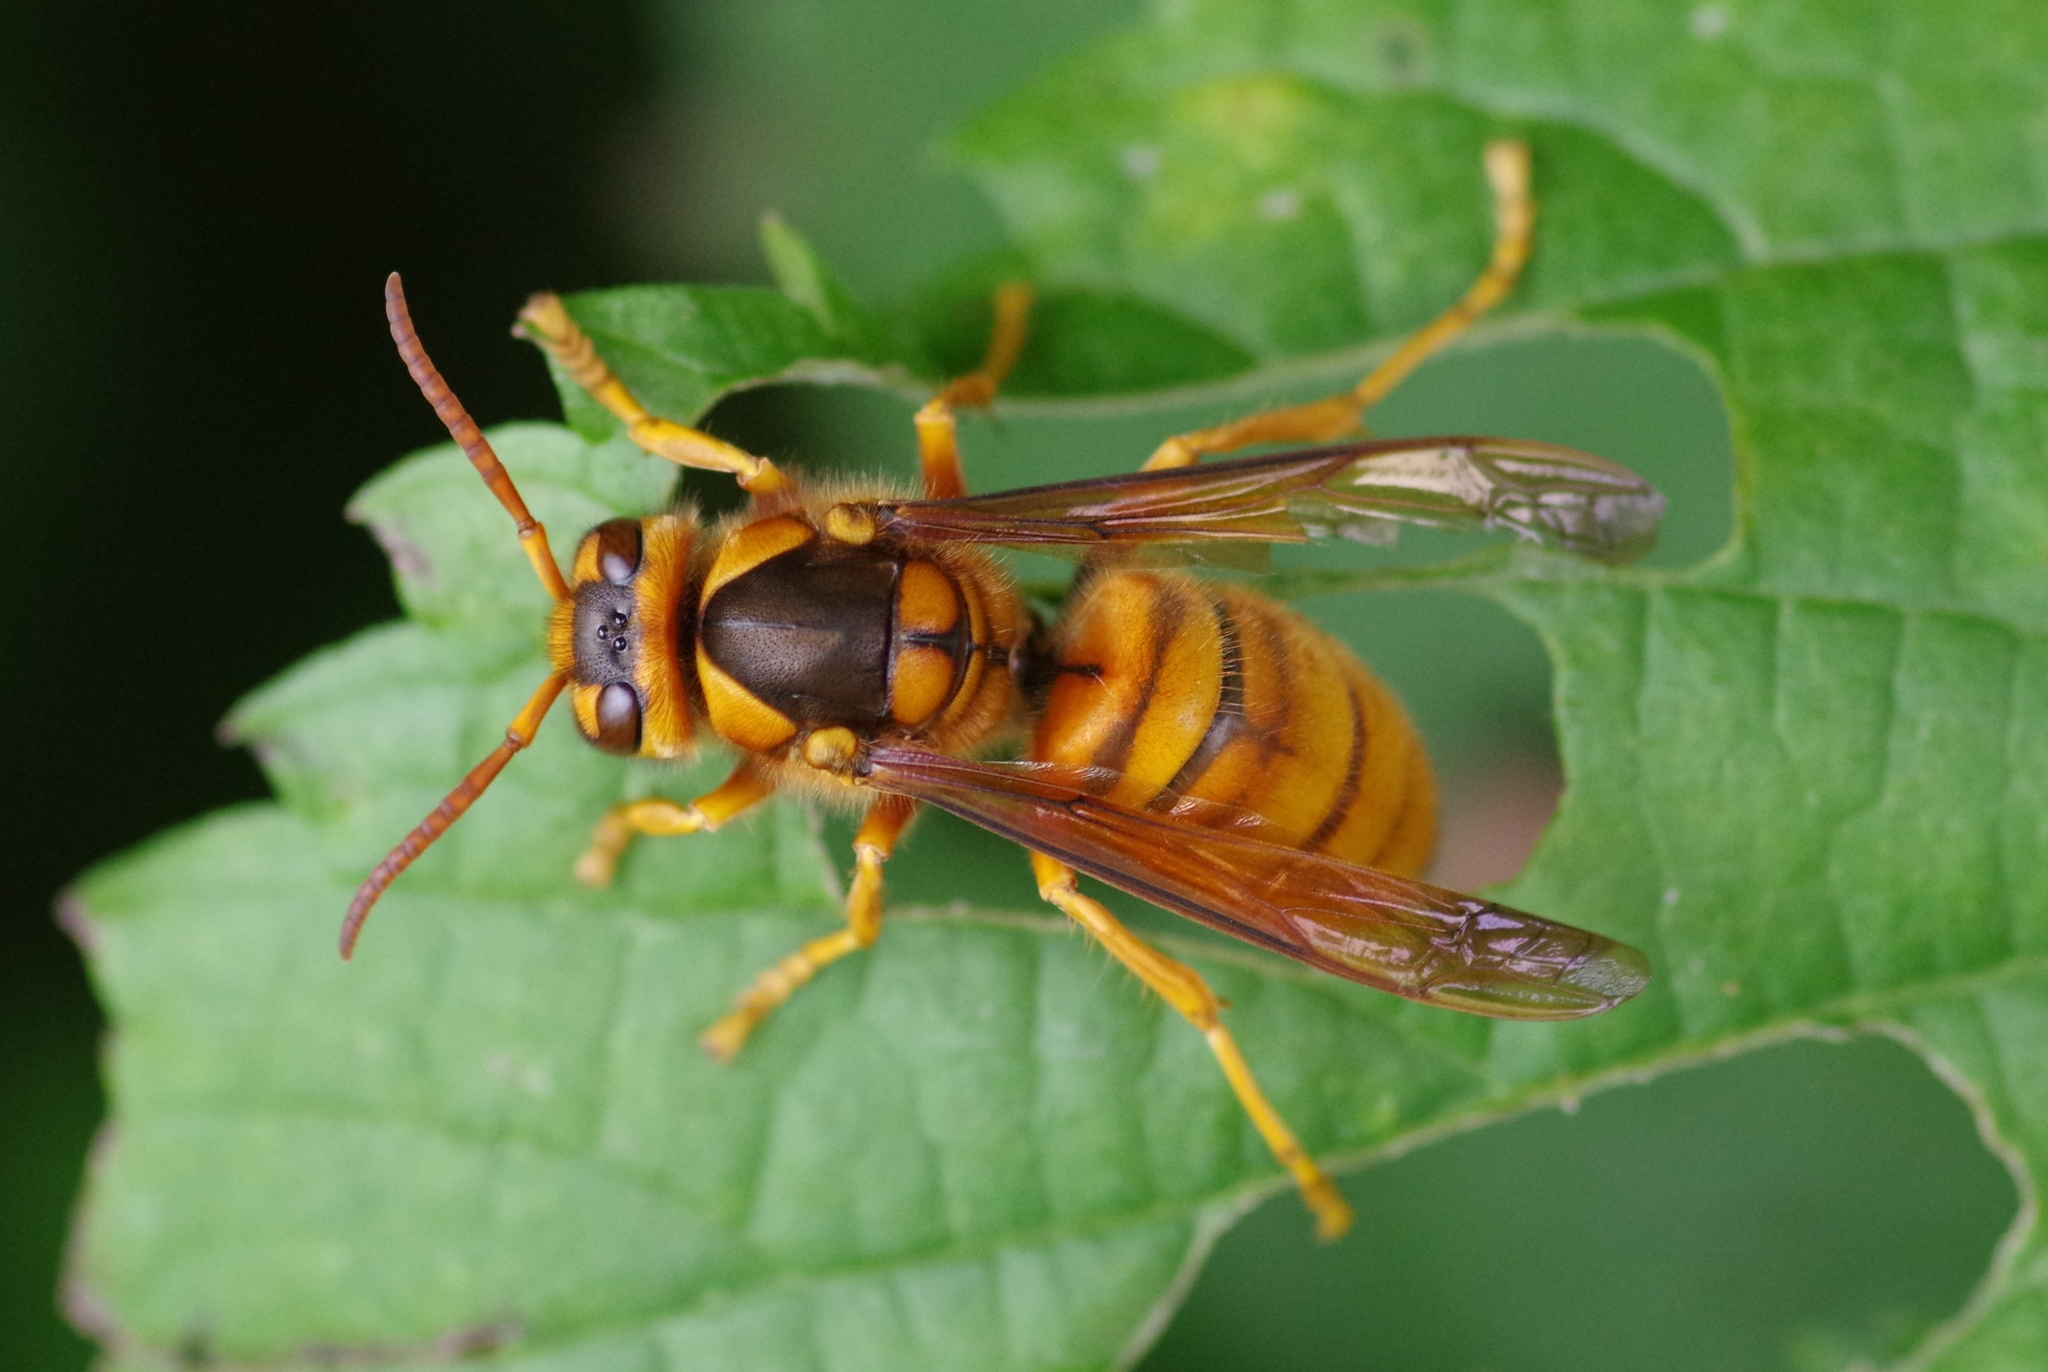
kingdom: Animalia
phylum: Arthropoda
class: Insecta
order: Hymenoptera
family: Vespidae
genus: Vespa
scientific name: Vespa simillima
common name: Vespid wasp
